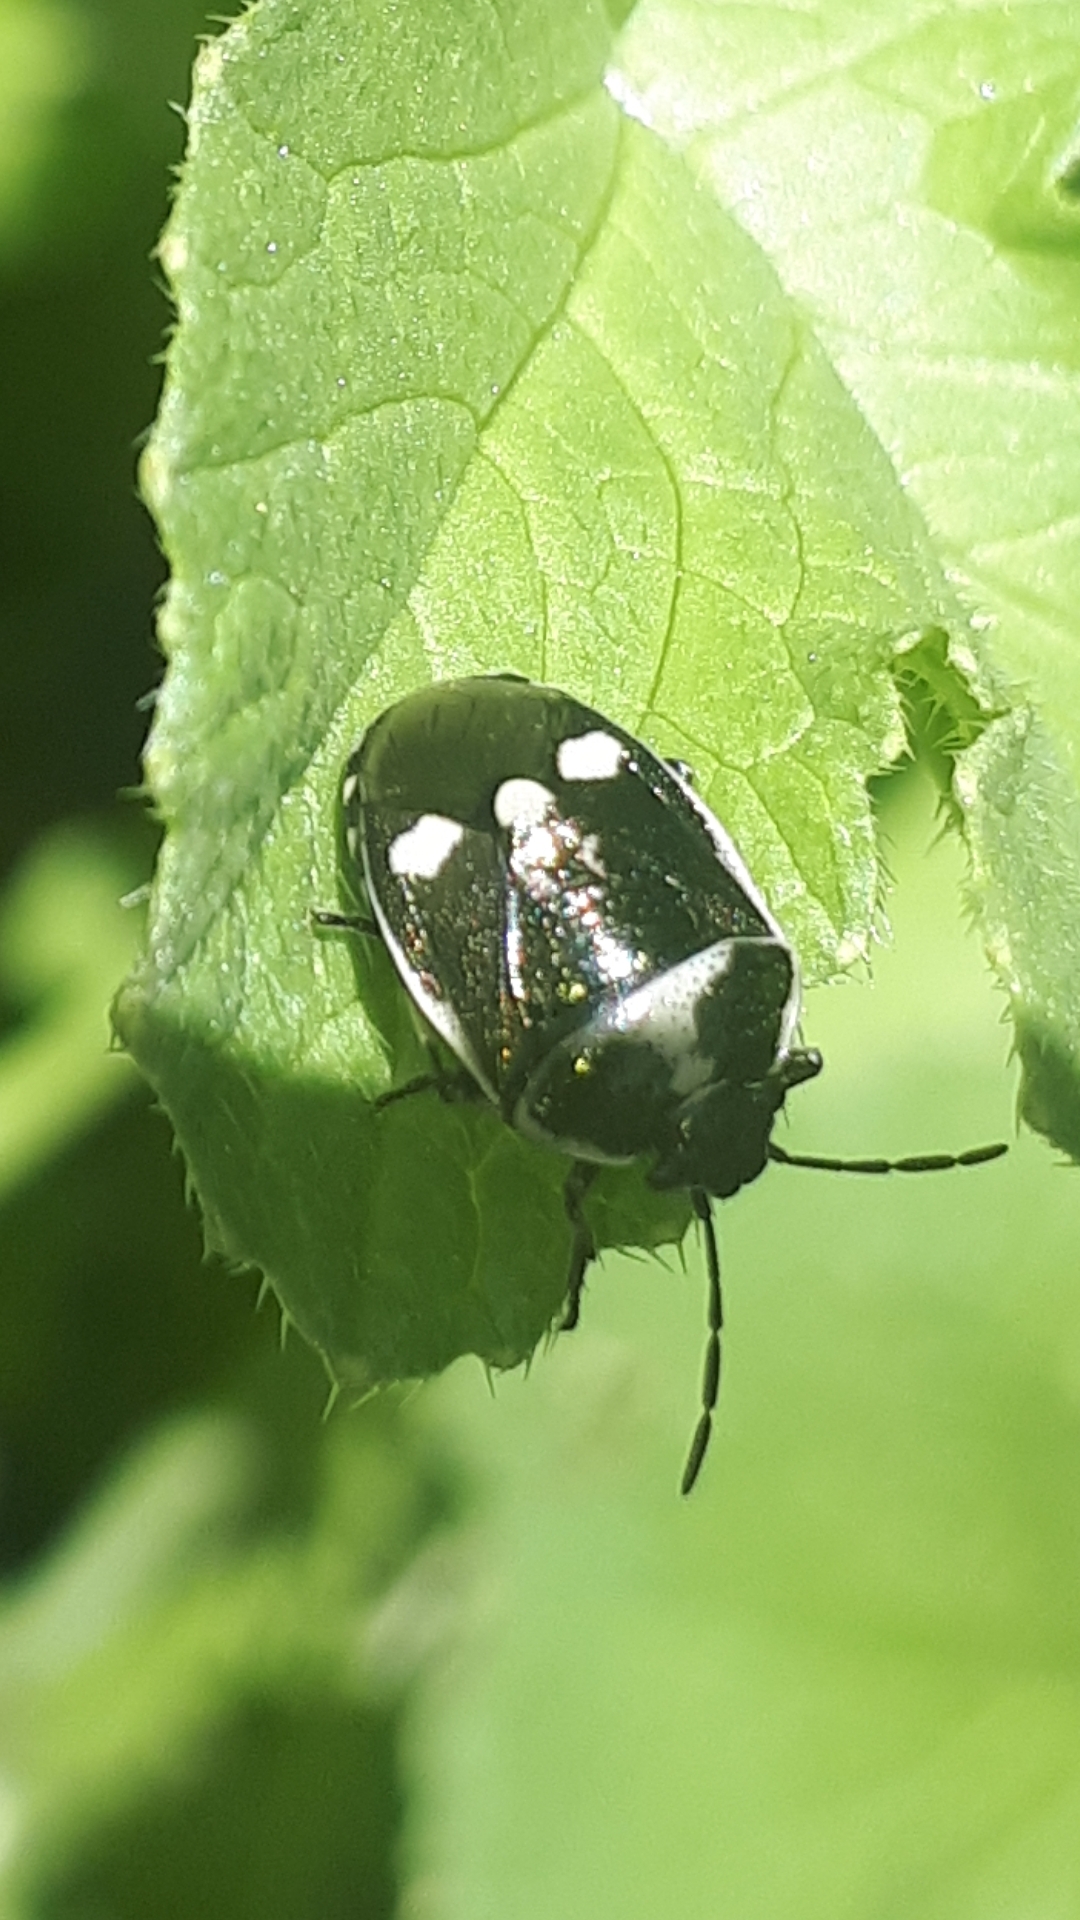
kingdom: Animalia
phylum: Arthropoda
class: Insecta
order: Hemiptera
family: Pentatomidae
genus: Eurydema
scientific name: Eurydema oleracea
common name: Cabbage bug
